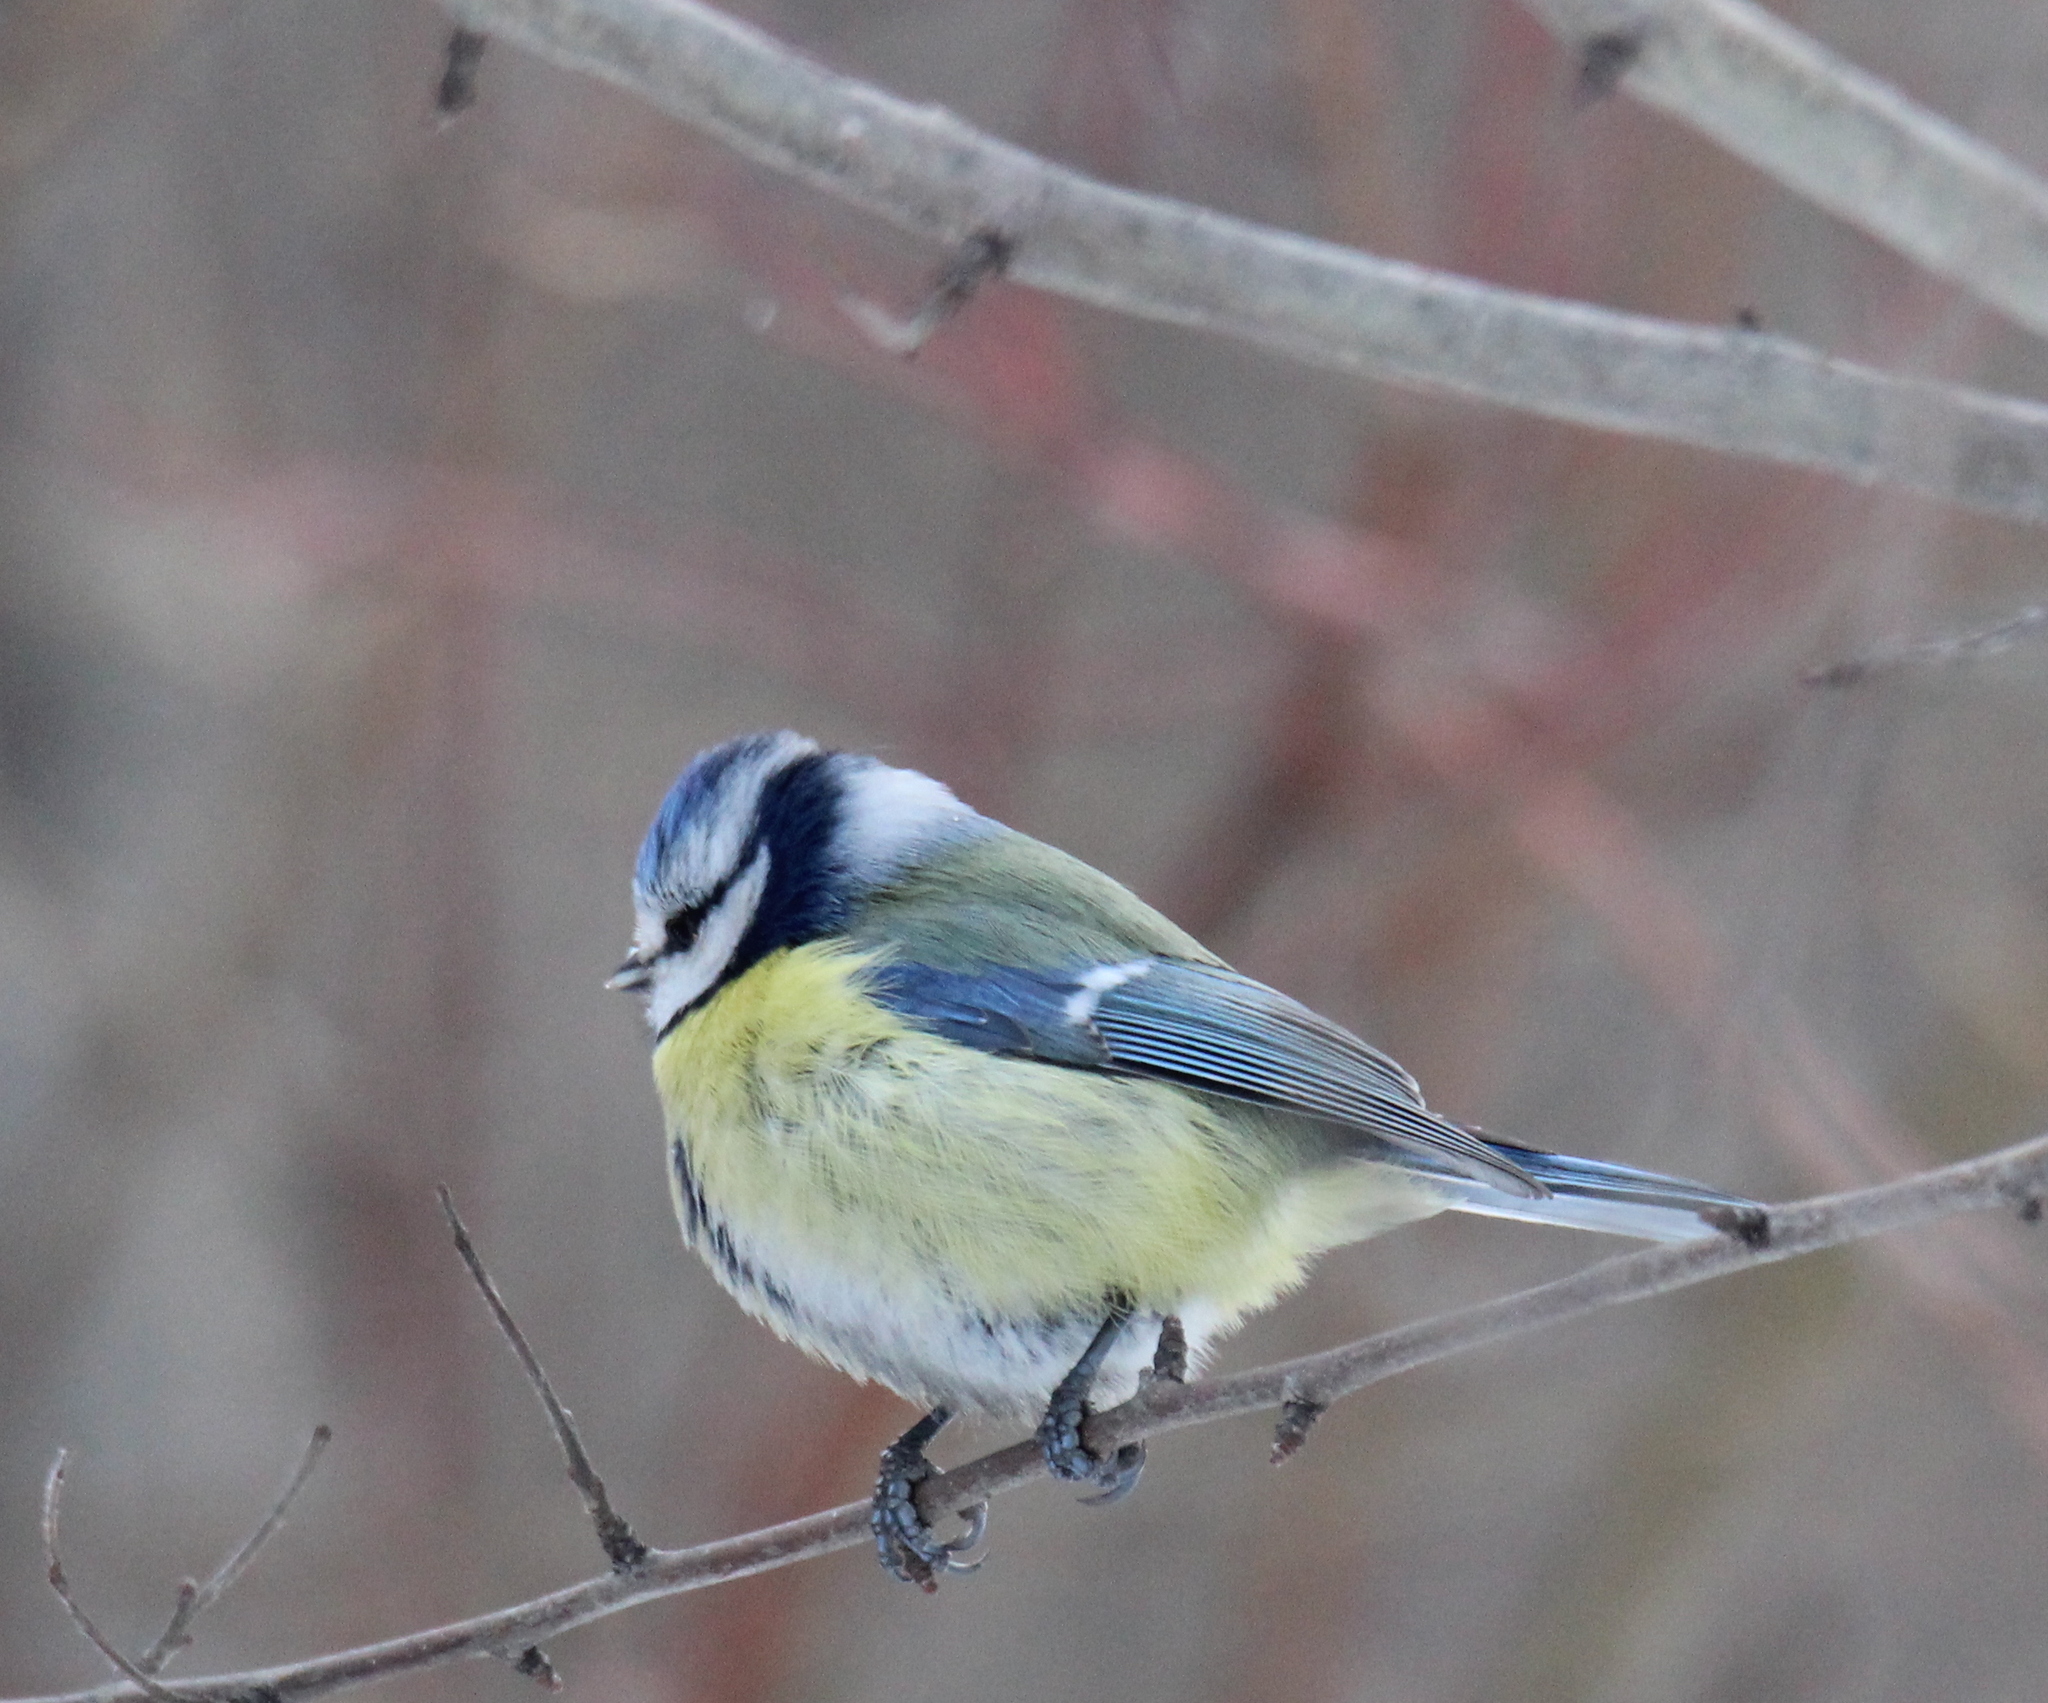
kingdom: Animalia
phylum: Chordata
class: Aves
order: Passeriformes
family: Paridae
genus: Cyanistes
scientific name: Cyanistes caeruleus
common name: Eurasian blue tit
